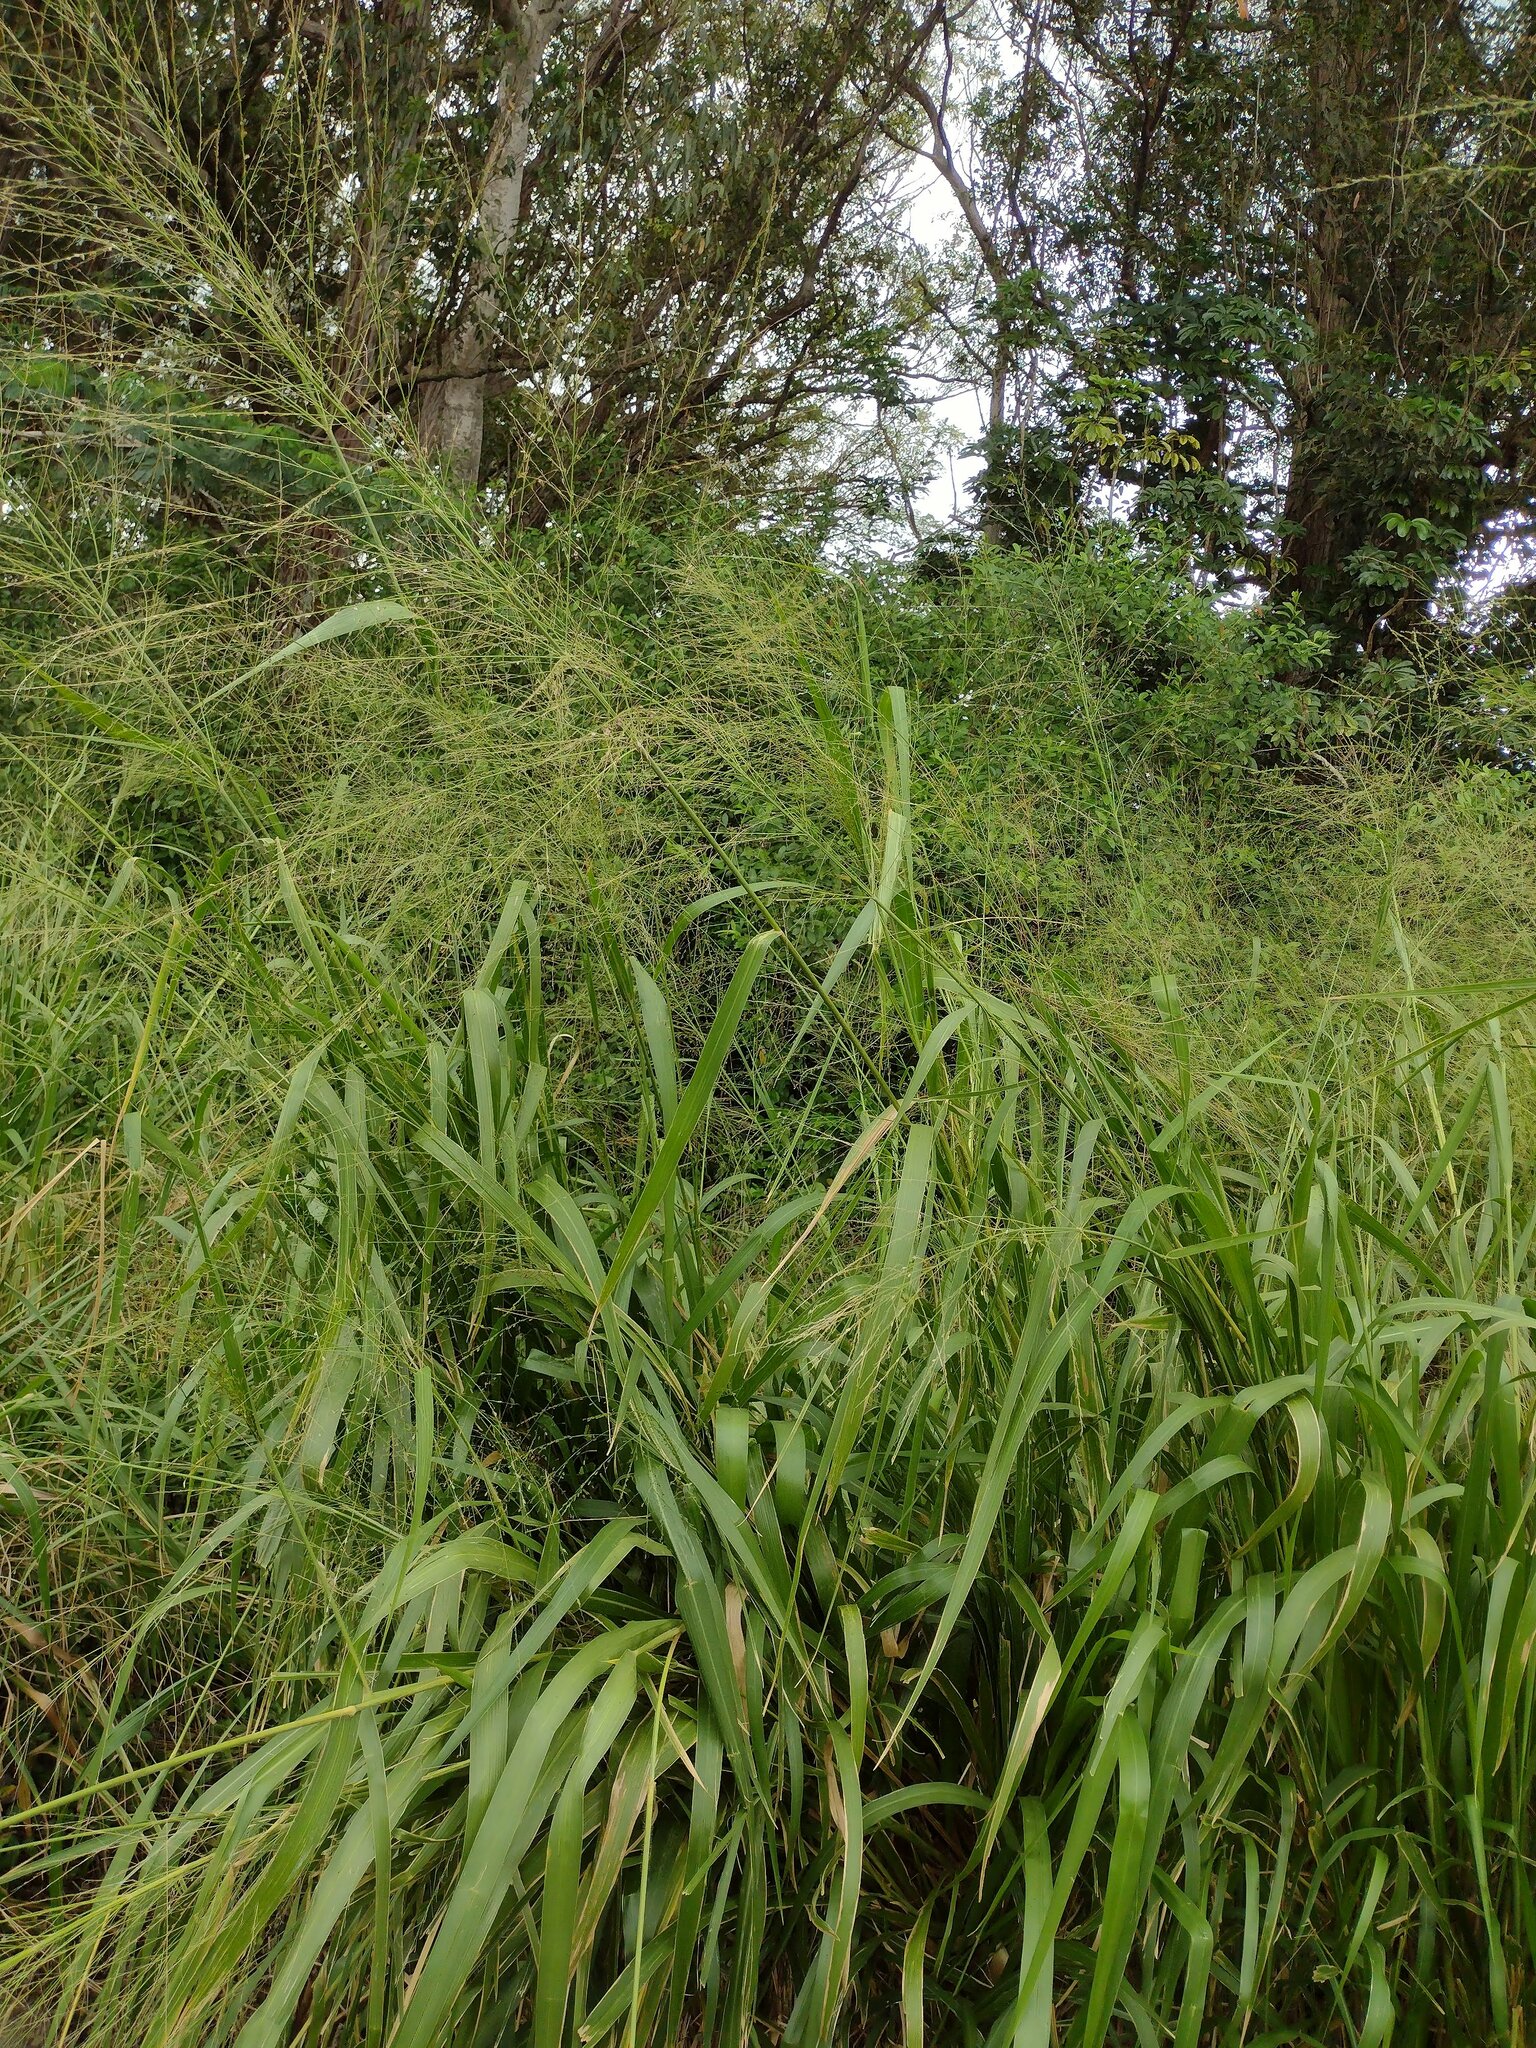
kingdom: Plantae
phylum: Tracheophyta
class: Liliopsida
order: Poales
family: Poaceae
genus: Megathyrsus
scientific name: Megathyrsus maximus
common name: Guineagrass
